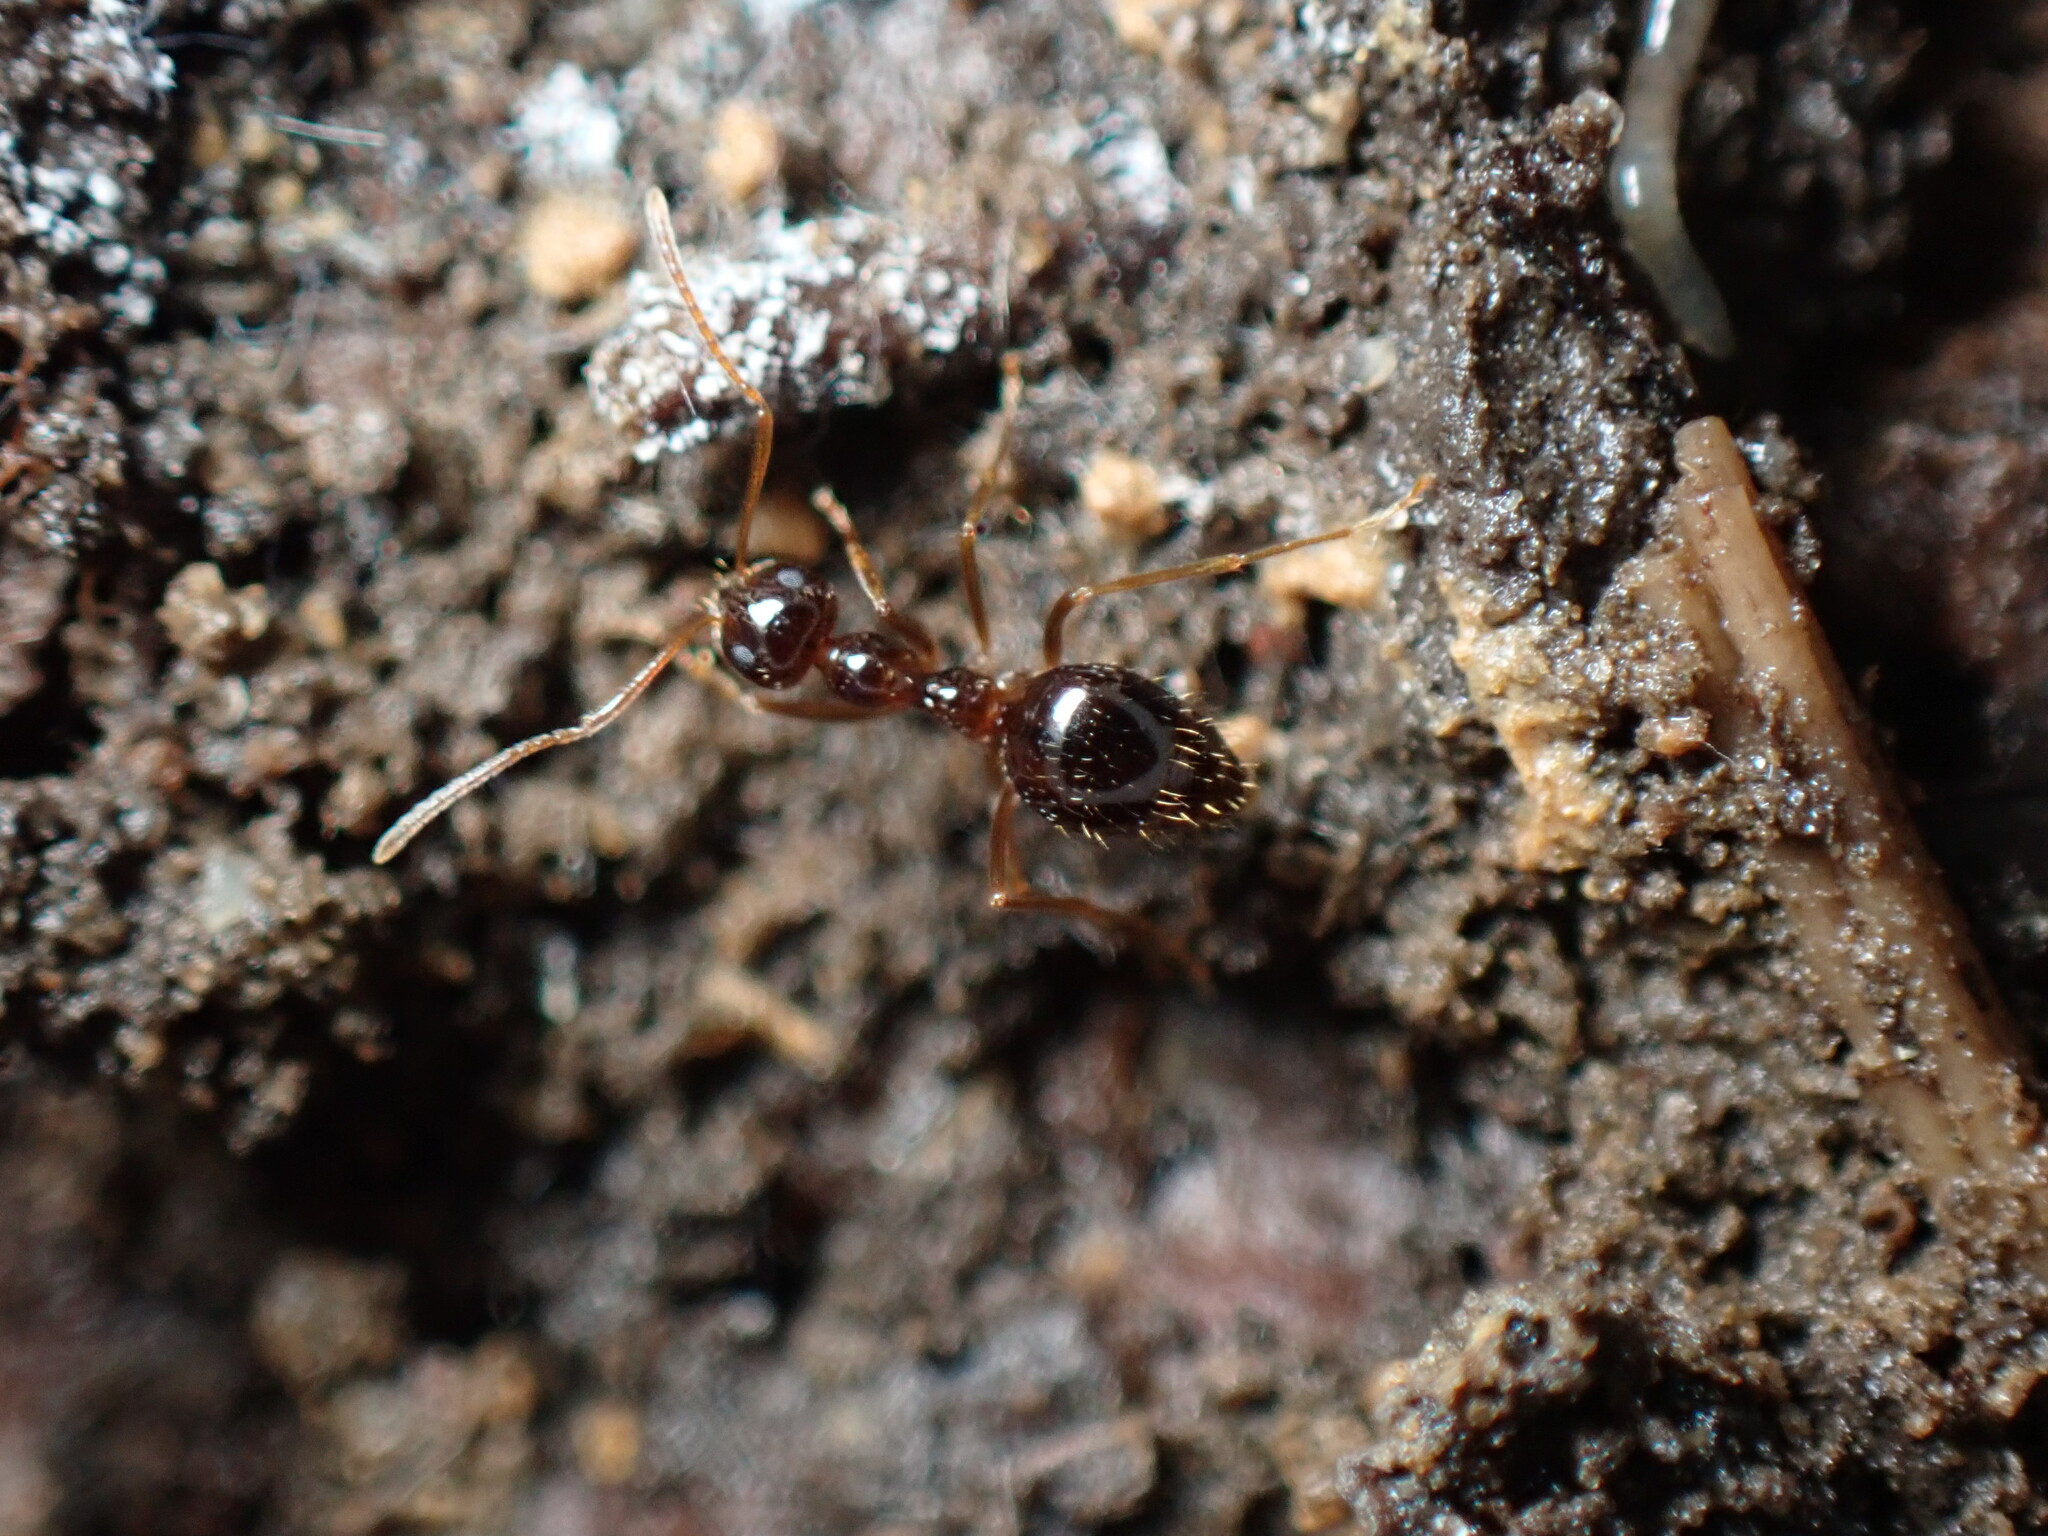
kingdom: Animalia
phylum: Arthropoda
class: Insecta
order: Hymenoptera
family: Formicidae
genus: Prenolepis
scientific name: Prenolepis imparis
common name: Small honey ant
